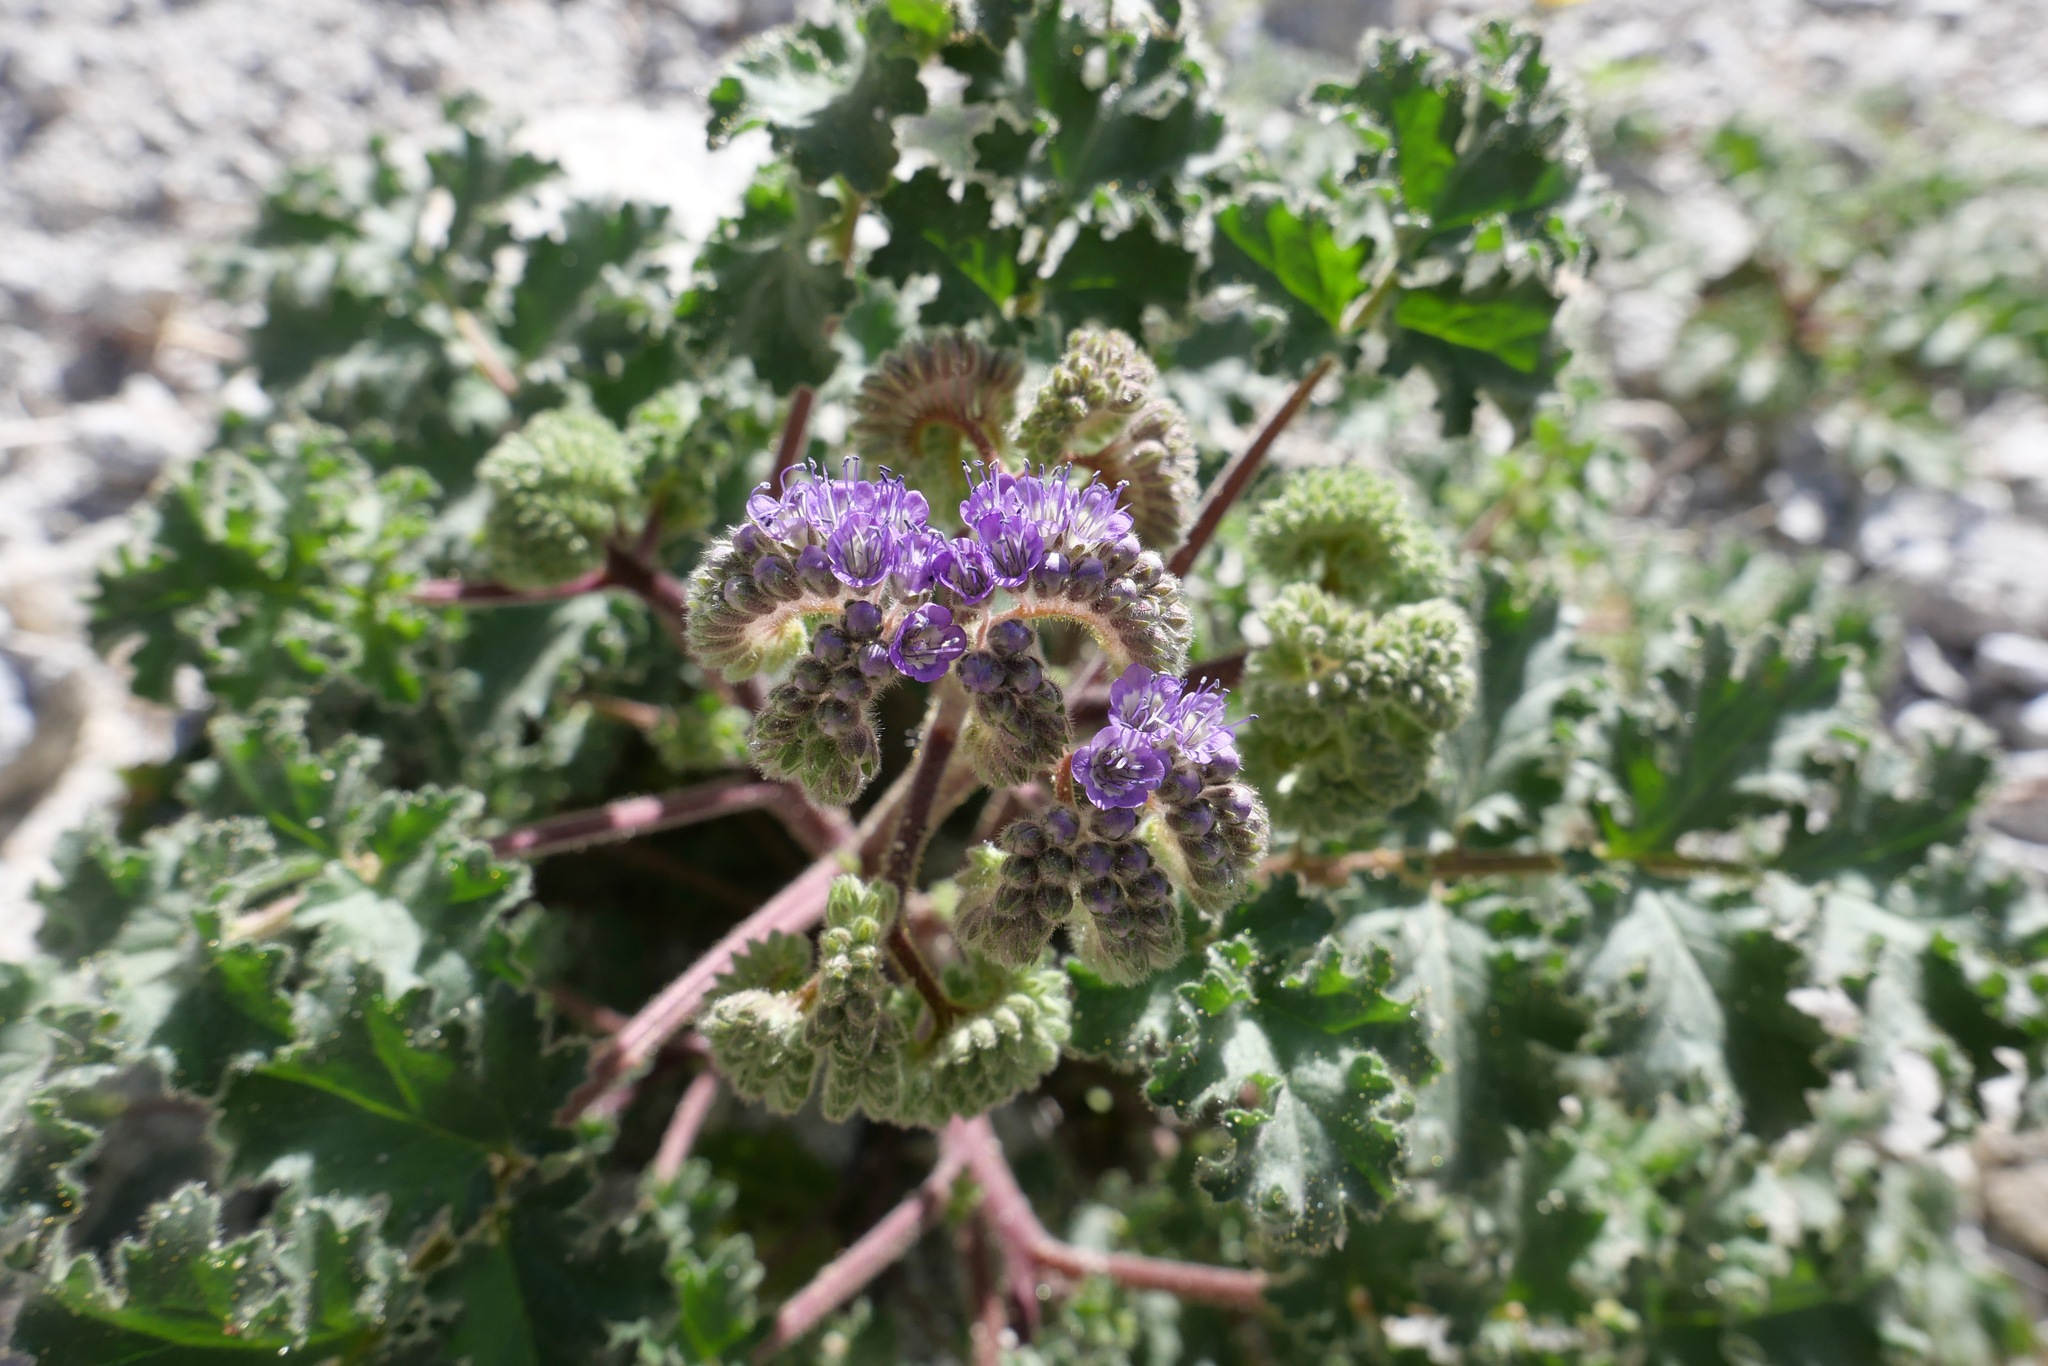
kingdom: Plantae
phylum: Tracheophyta
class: Magnoliopsida
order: Boraginales
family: Hydrophyllaceae
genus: Phacelia
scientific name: Phacelia pedicellata
